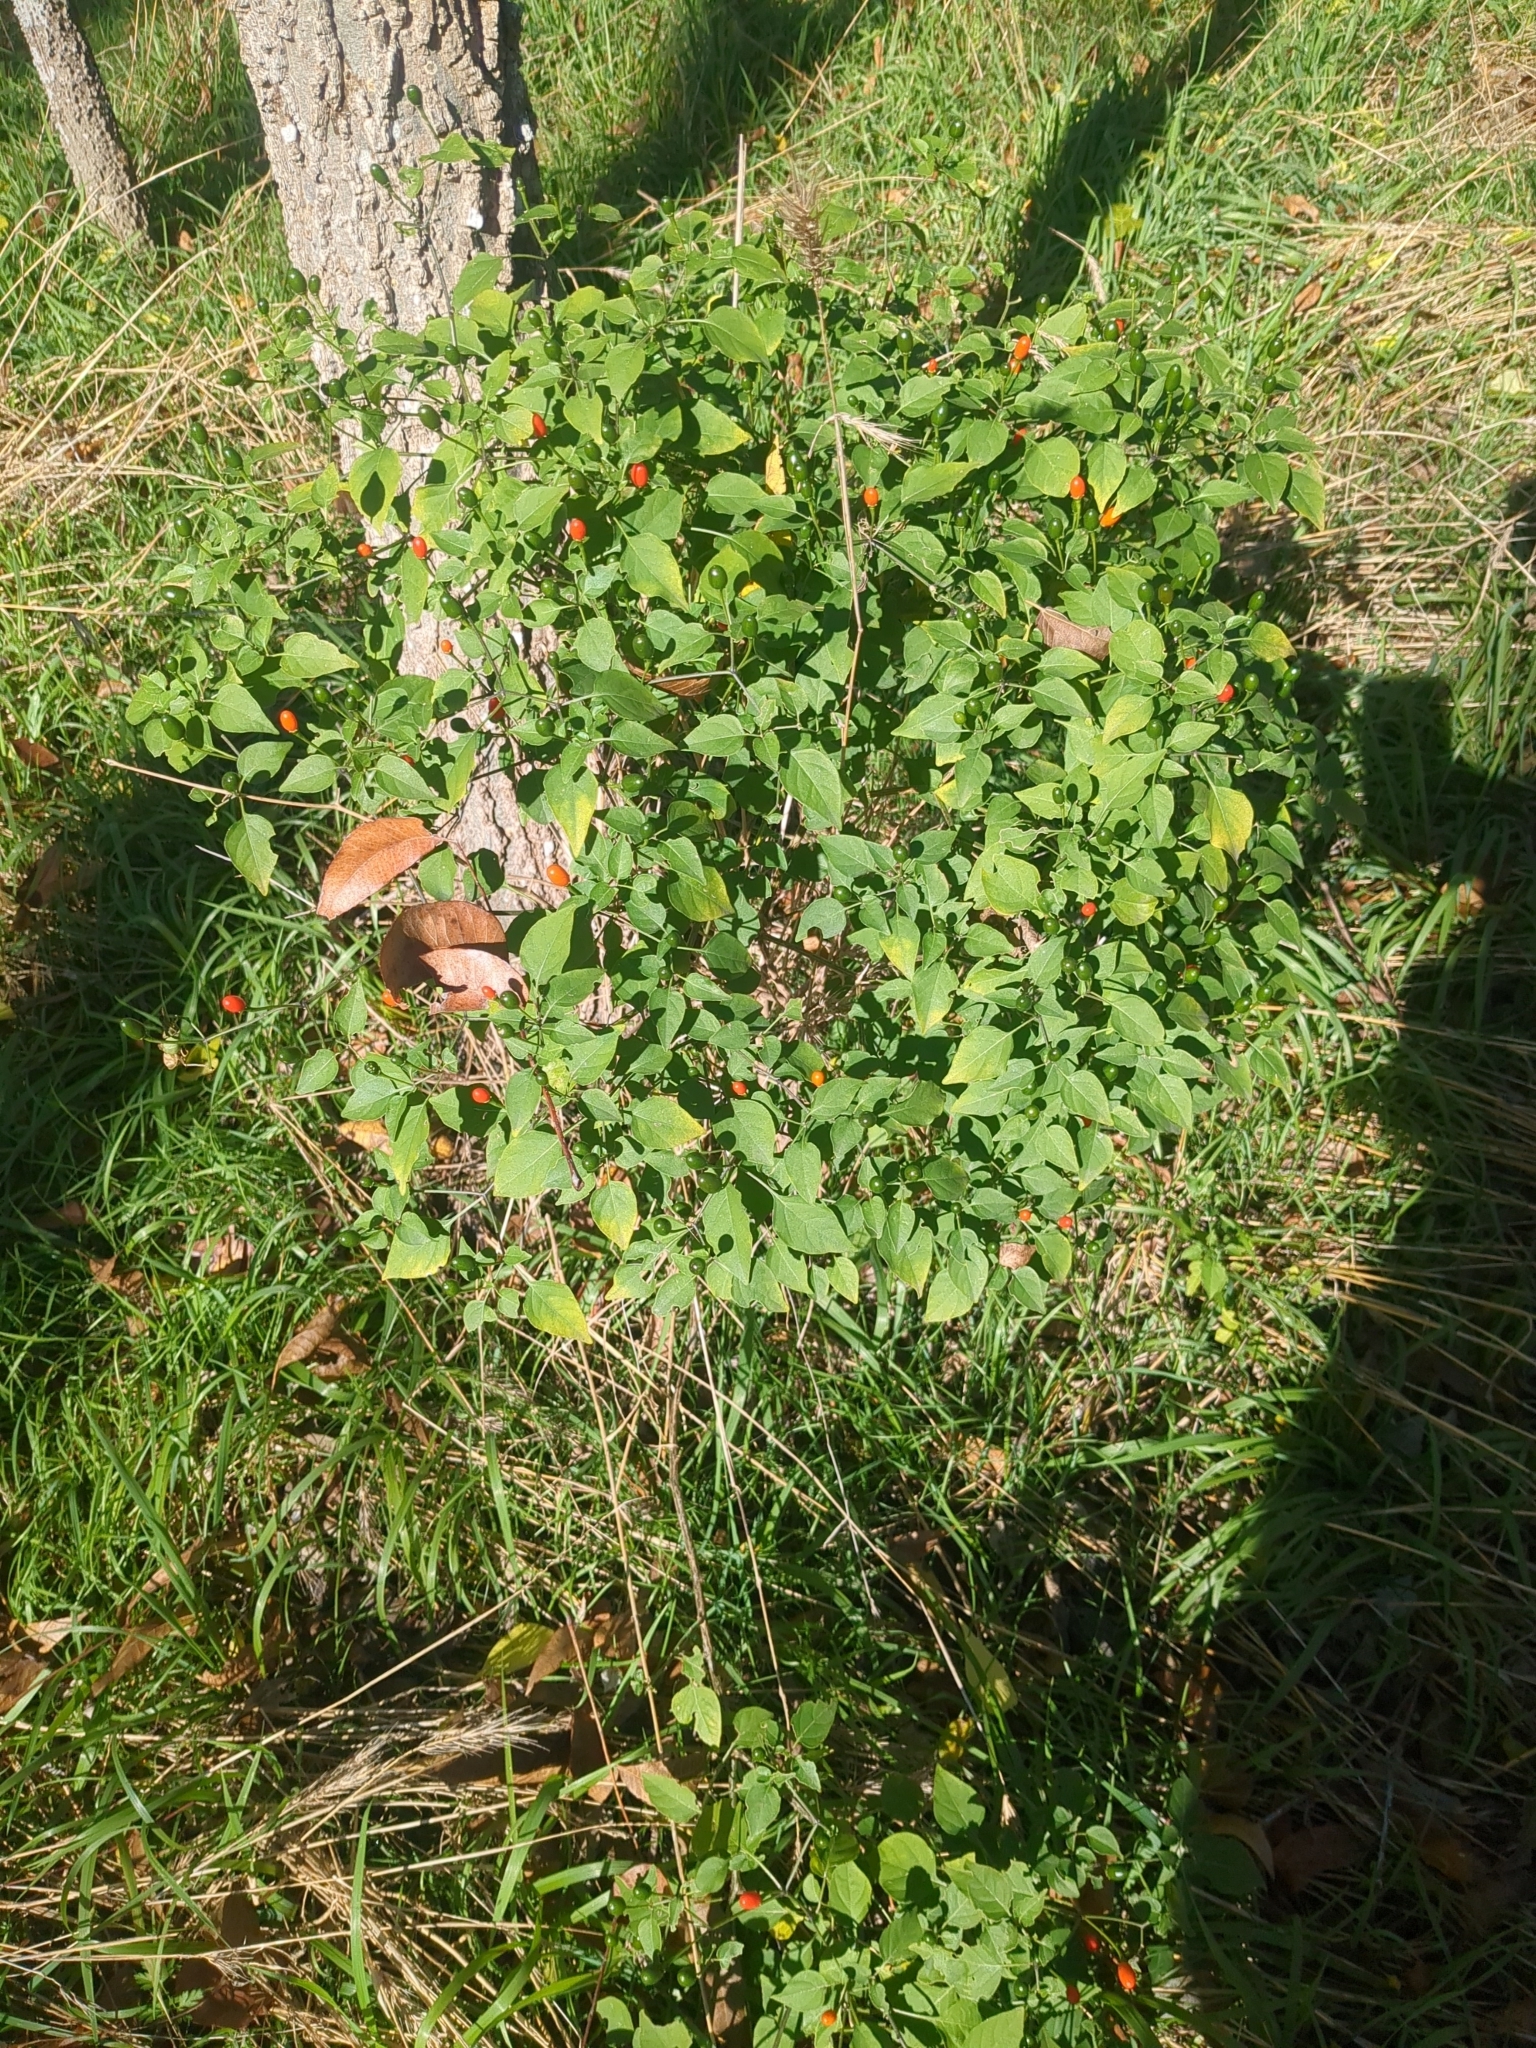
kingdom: Plantae
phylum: Tracheophyta
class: Magnoliopsida
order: Solanales
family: Solanaceae
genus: Capsicum
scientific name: Capsicum annuum
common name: Sweet pepper
